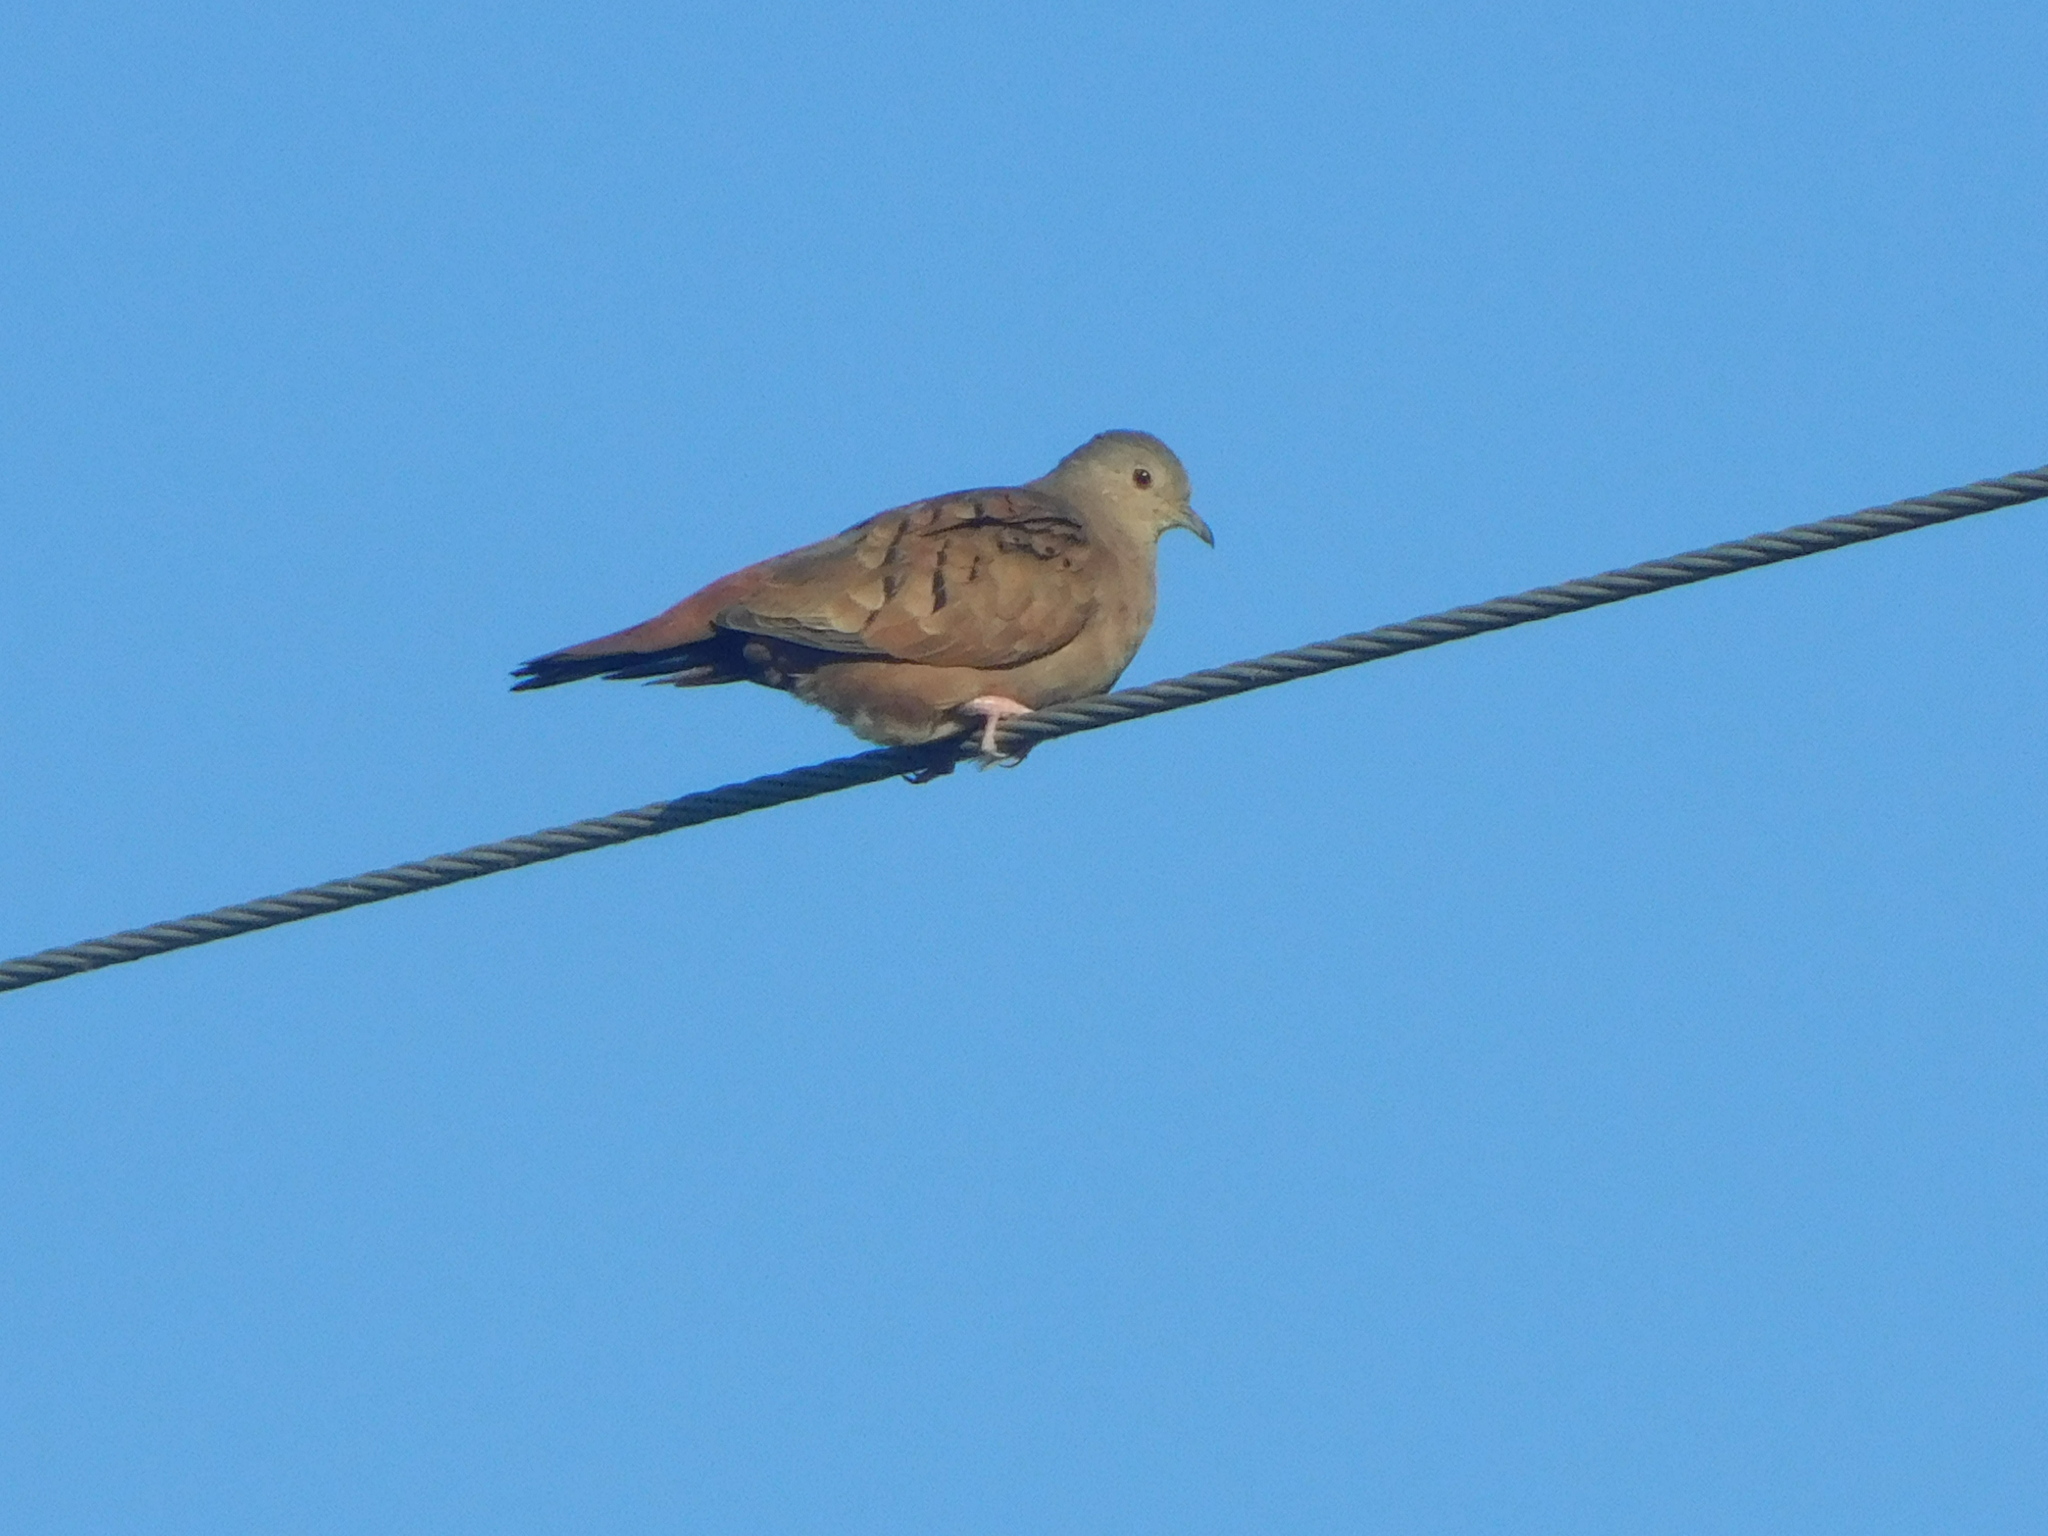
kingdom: Animalia
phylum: Chordata
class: Aves
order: Columbiformes
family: Columbidae
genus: Columbina
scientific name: Columbina talpacoti
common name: Ruddy ground dove
